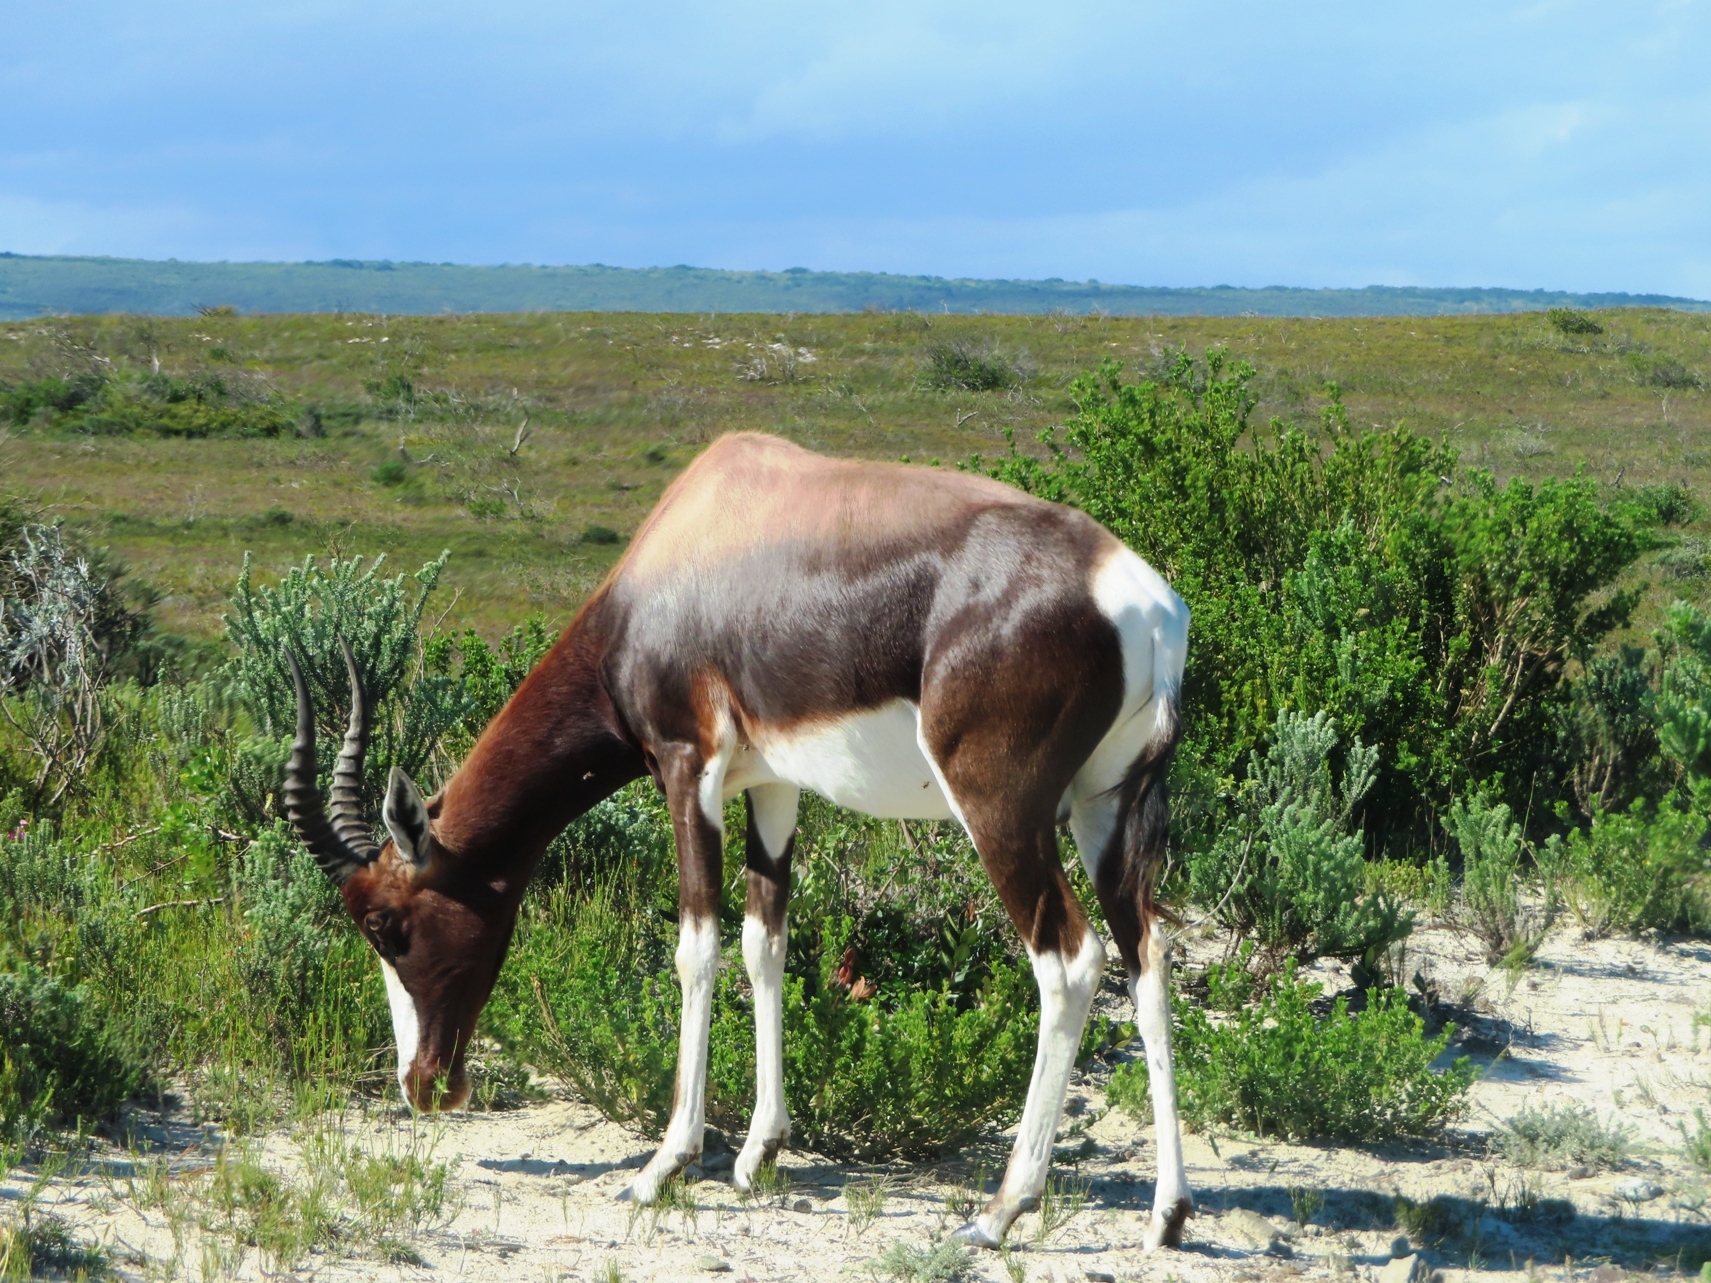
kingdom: Animalia
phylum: Chordata
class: Mammalia
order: Artiodactyla
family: Bovidae
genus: Damaliscus
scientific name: Damaliscus pygargus
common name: Bontebok
